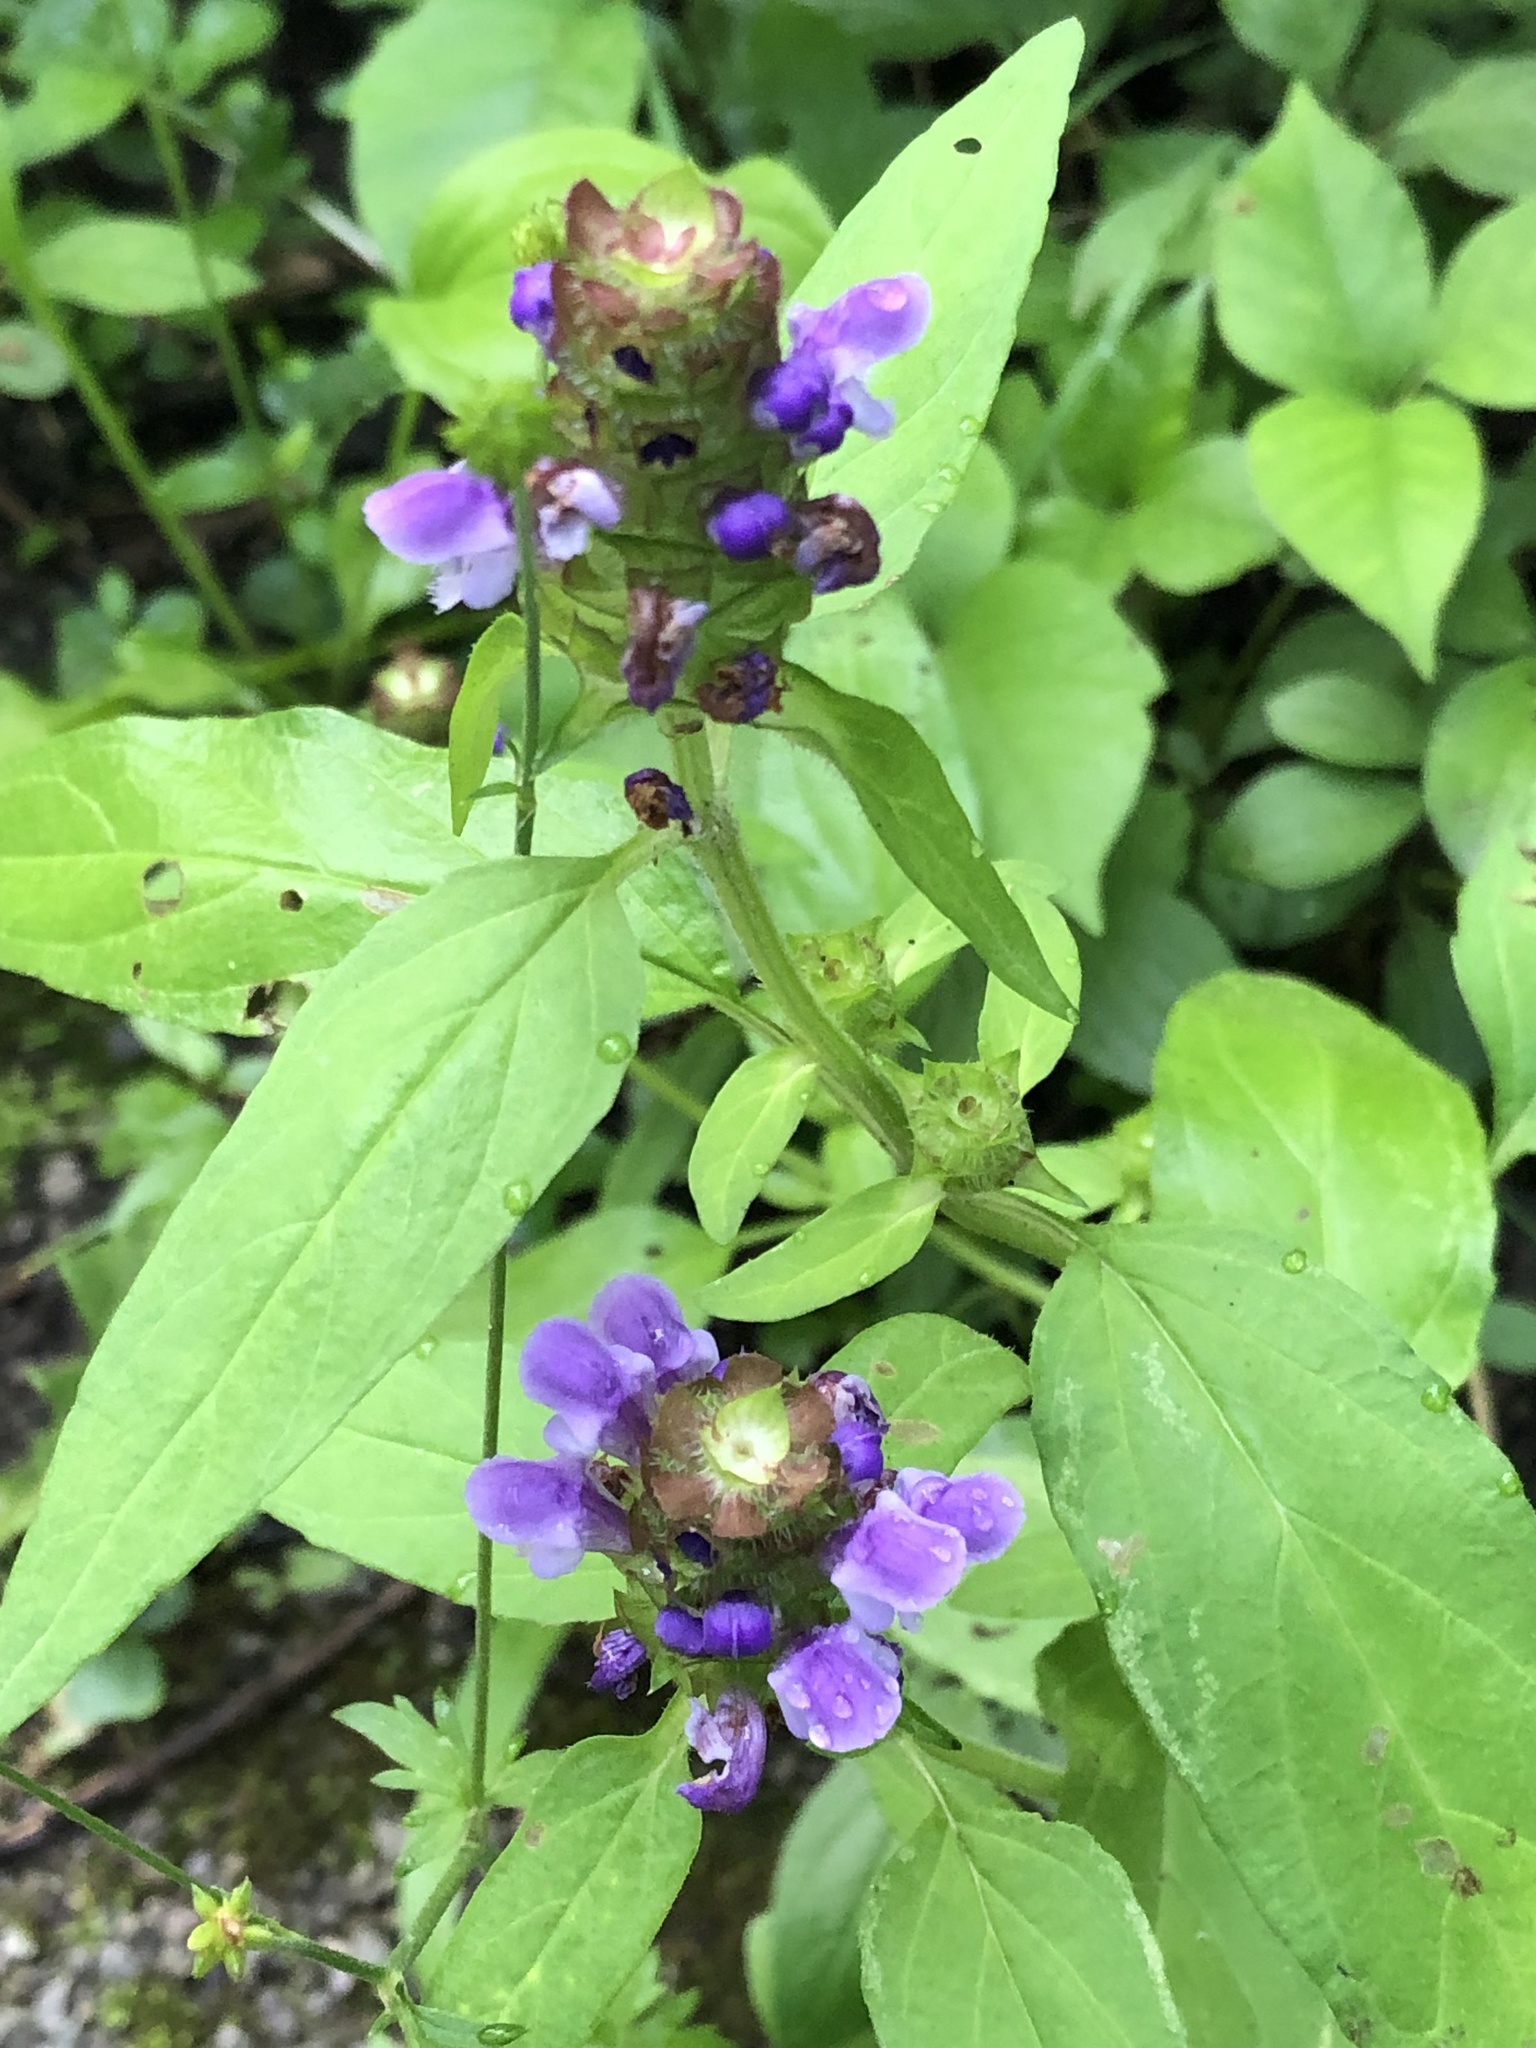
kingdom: Plantae
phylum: Tracheophyta
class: Magnoliopsida
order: Lamiales
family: Lamiaceae
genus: Prunella
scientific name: Prunella vulgaris
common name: Heal-all
